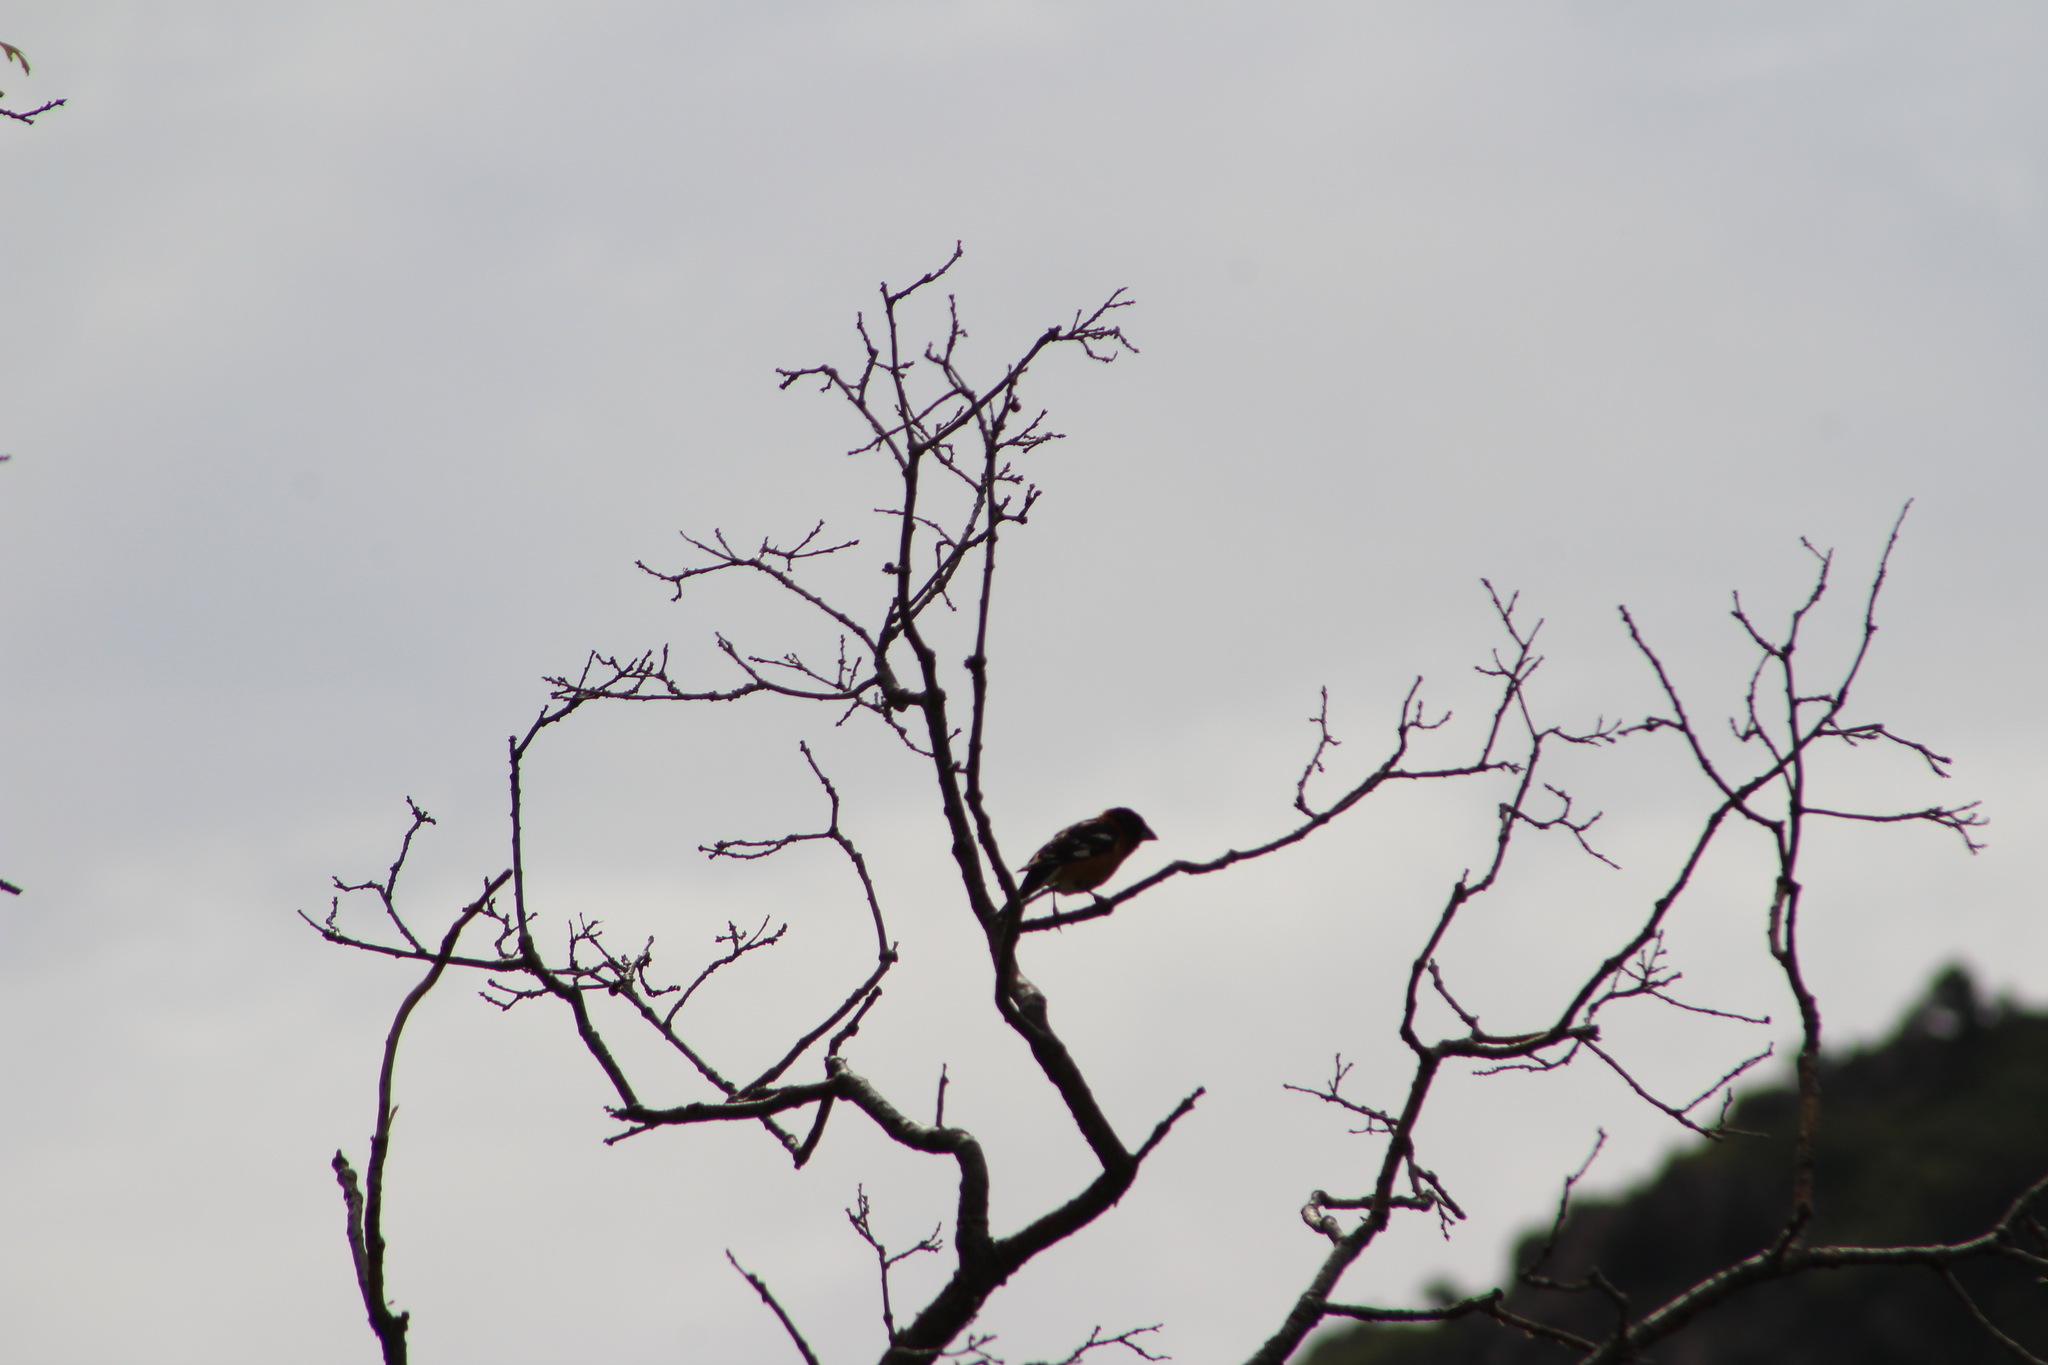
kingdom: Animalia
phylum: Chordata
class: Aves
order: Passeriformes
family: Cardinalidae
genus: Pheucticus
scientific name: Pheucticus melanocephalus
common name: Black-headed grosbeak
